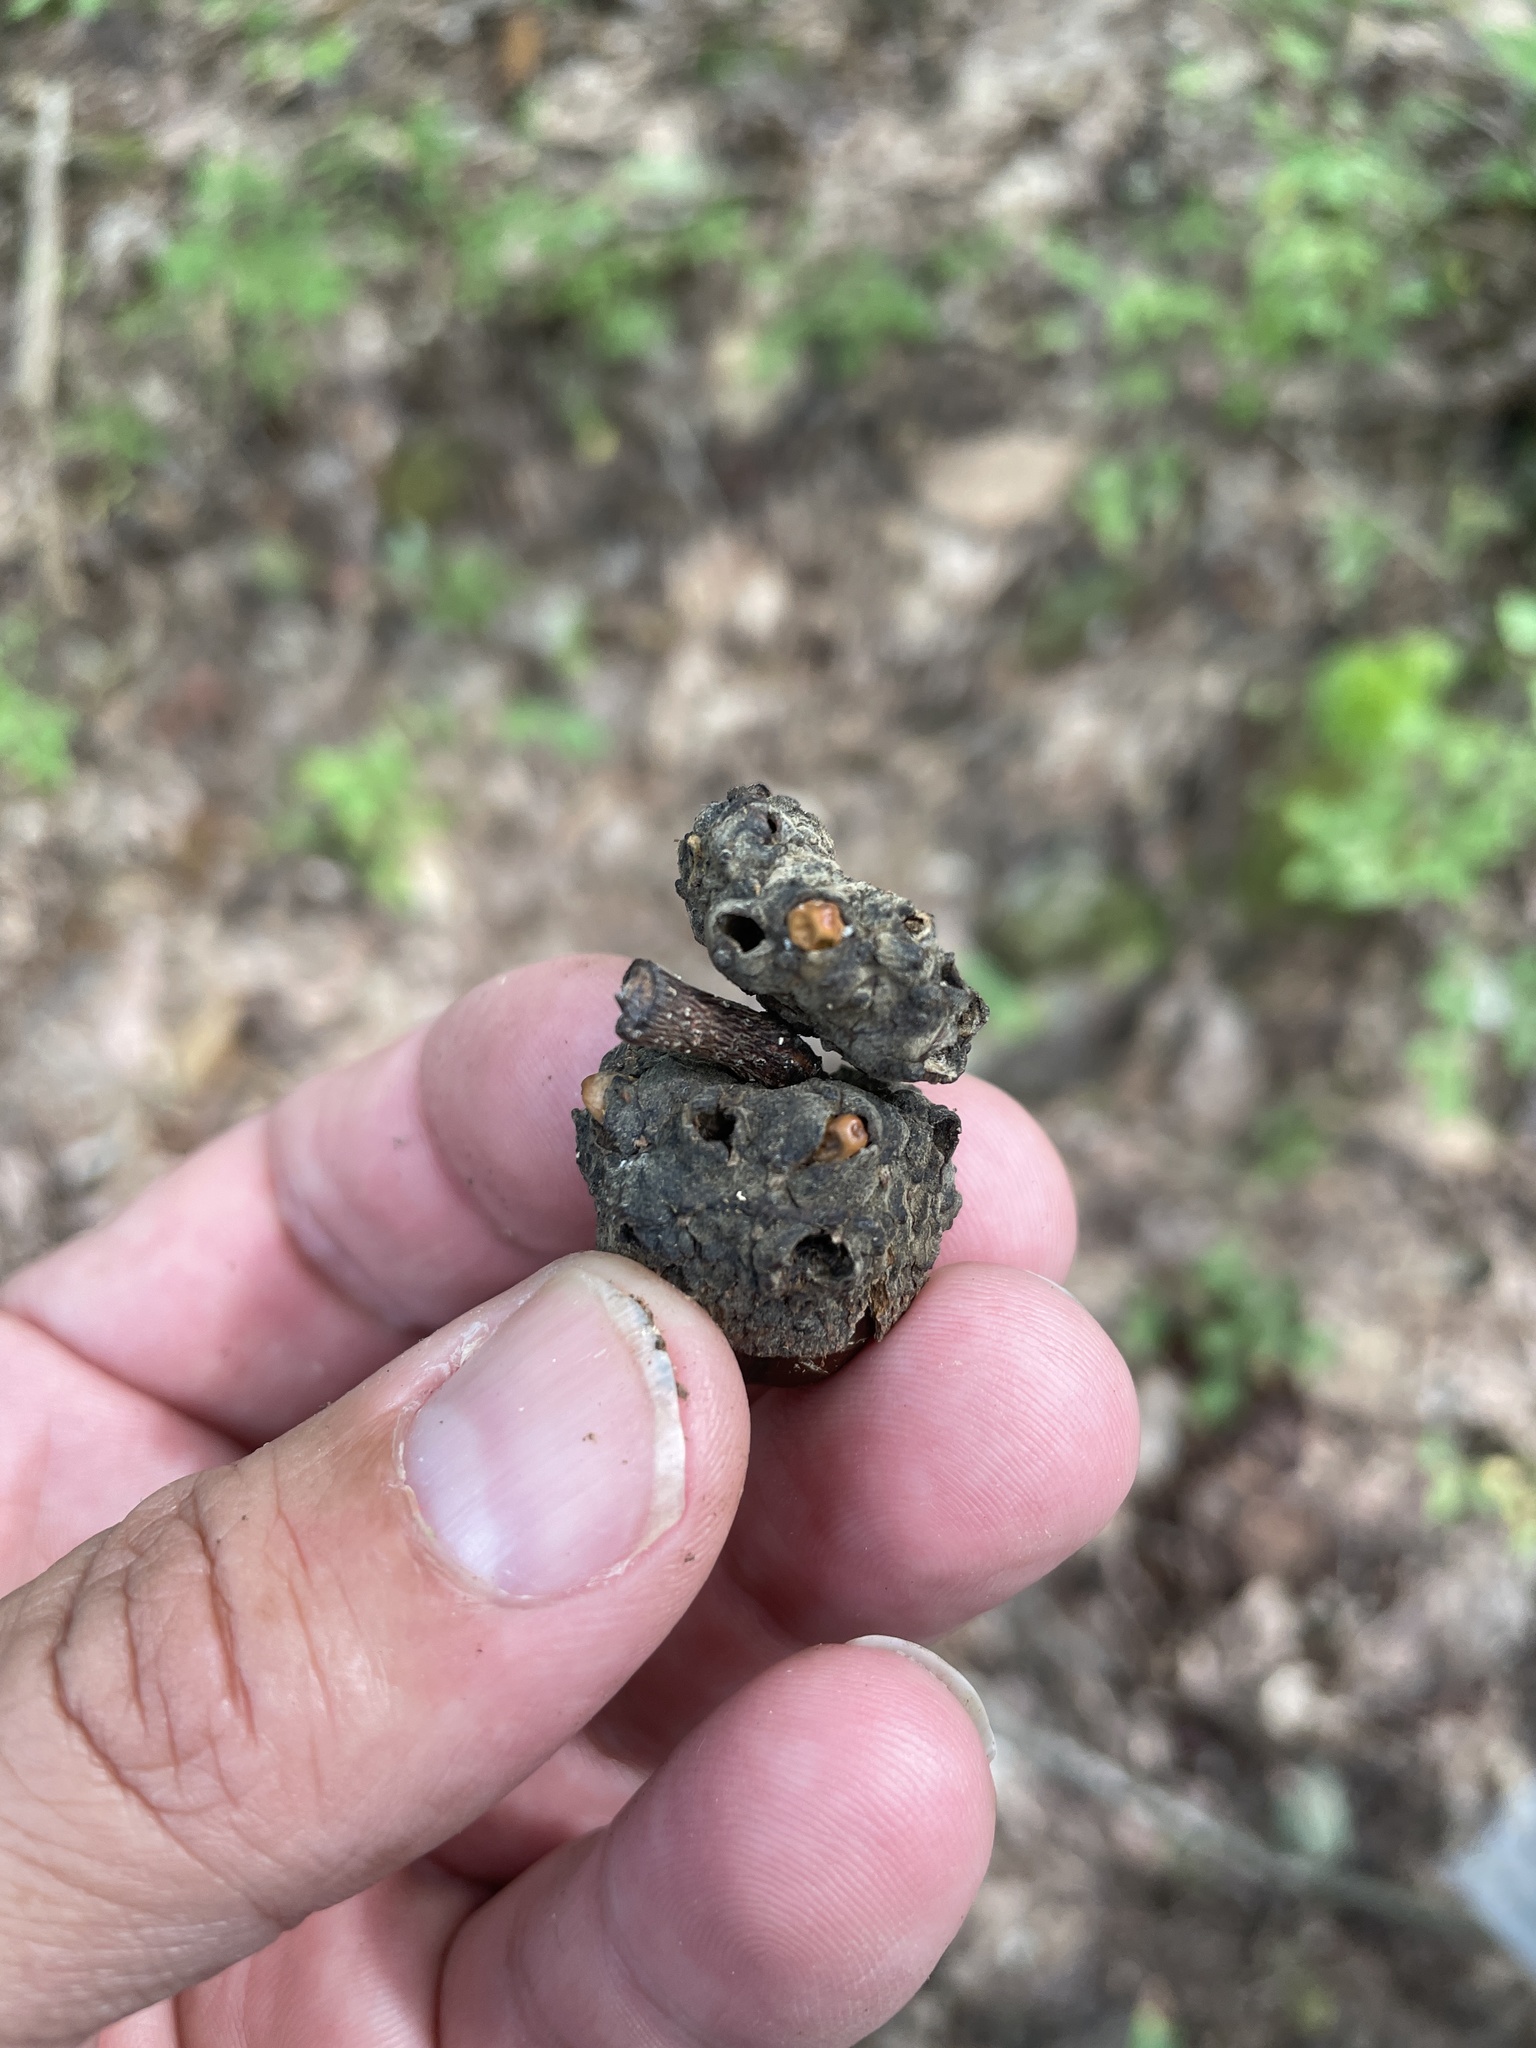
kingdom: Animalia
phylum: Arthropoda
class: Insecta
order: Hymenoptera
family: Cynipidae
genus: Callirhytis
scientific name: Callirhytis glandium
